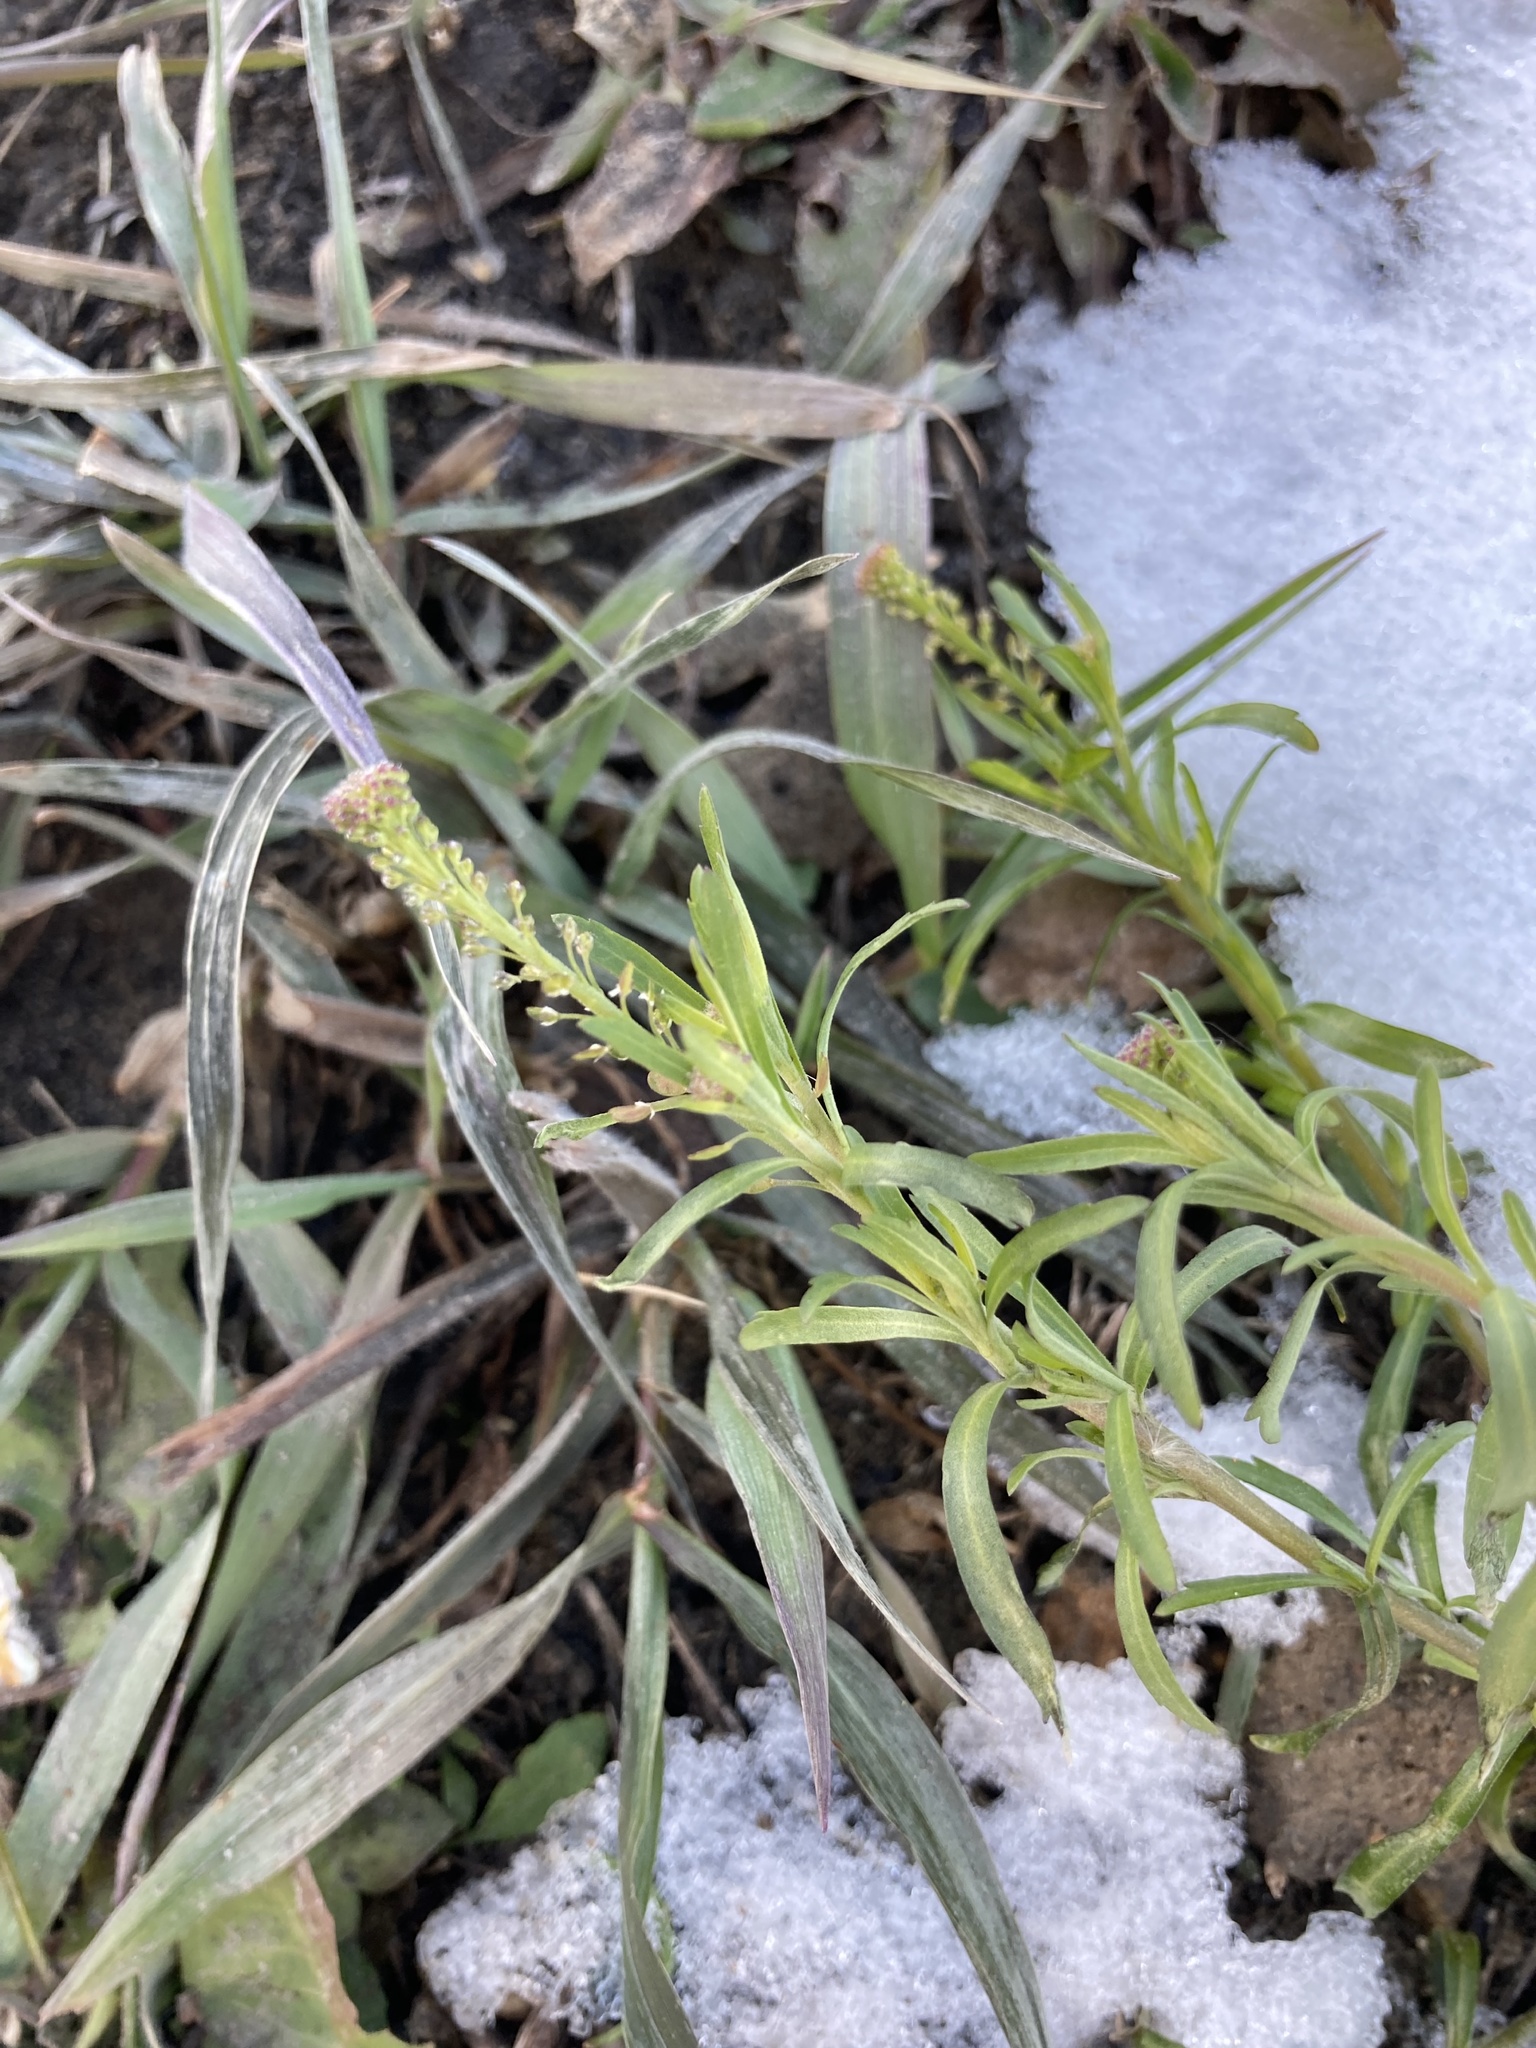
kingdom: Plantae
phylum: Tracheophyta
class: Magnoliopsida
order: Brassicales
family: Brassicaceae
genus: Lepidium
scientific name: Lepidium densiflorum
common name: Miner's pepperwort
